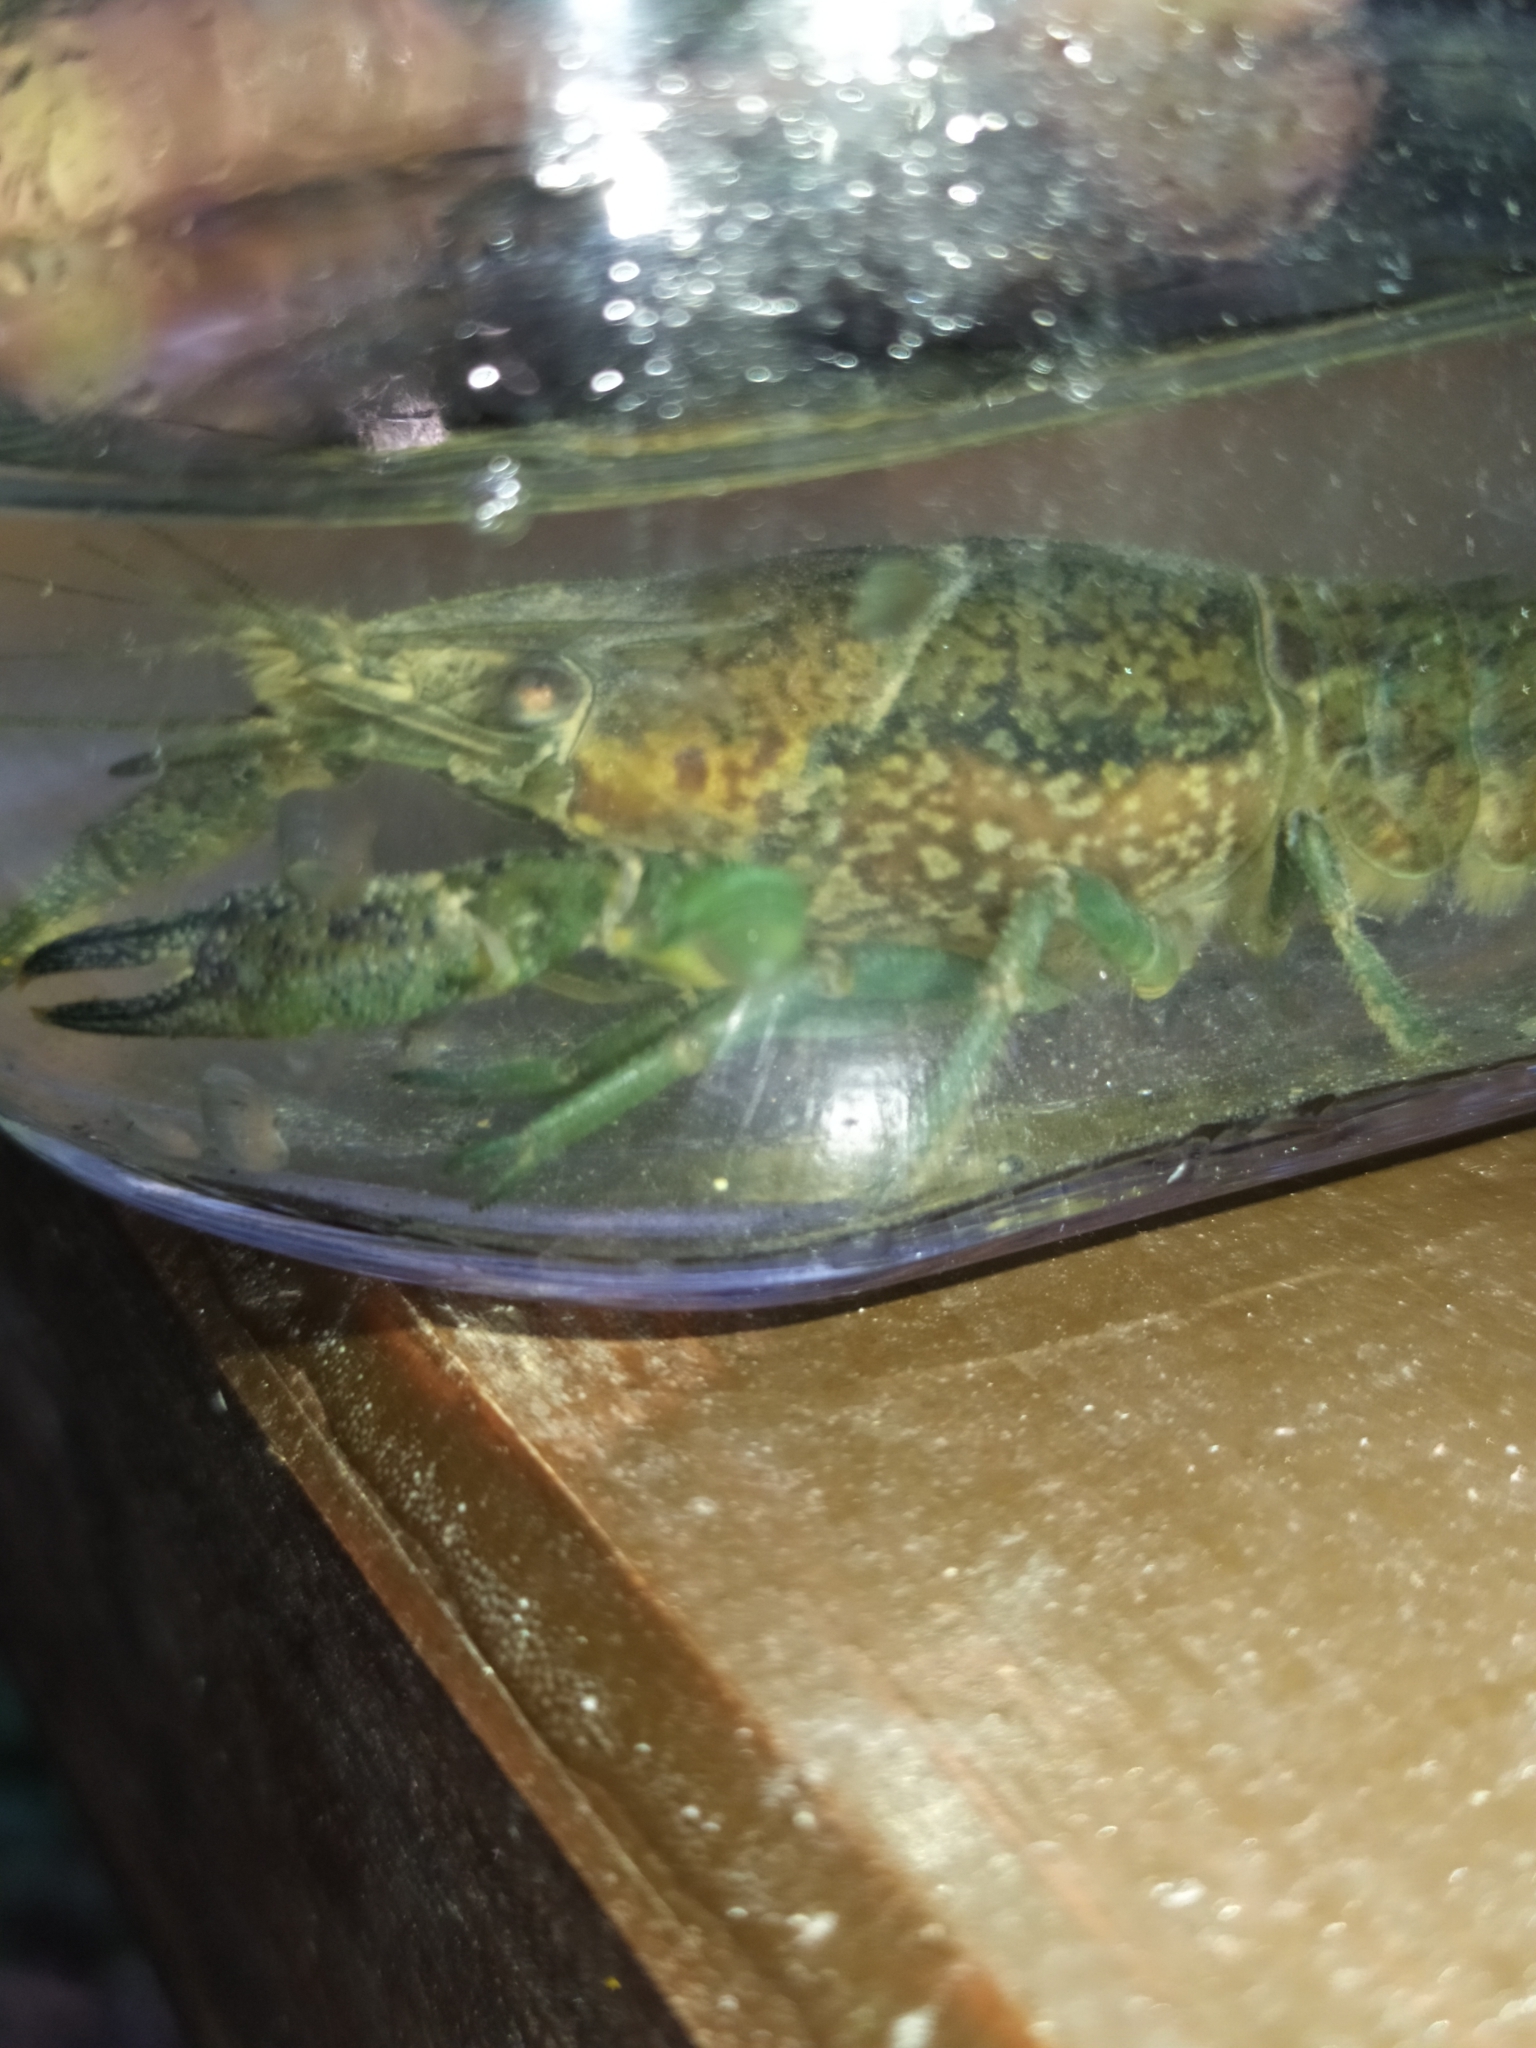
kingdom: Animalia
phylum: Arthropoda
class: Malacostraca
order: Decapoda
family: Cambaridae
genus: Procambarus
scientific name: Procambarus virginalis
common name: Marbled crayfish
